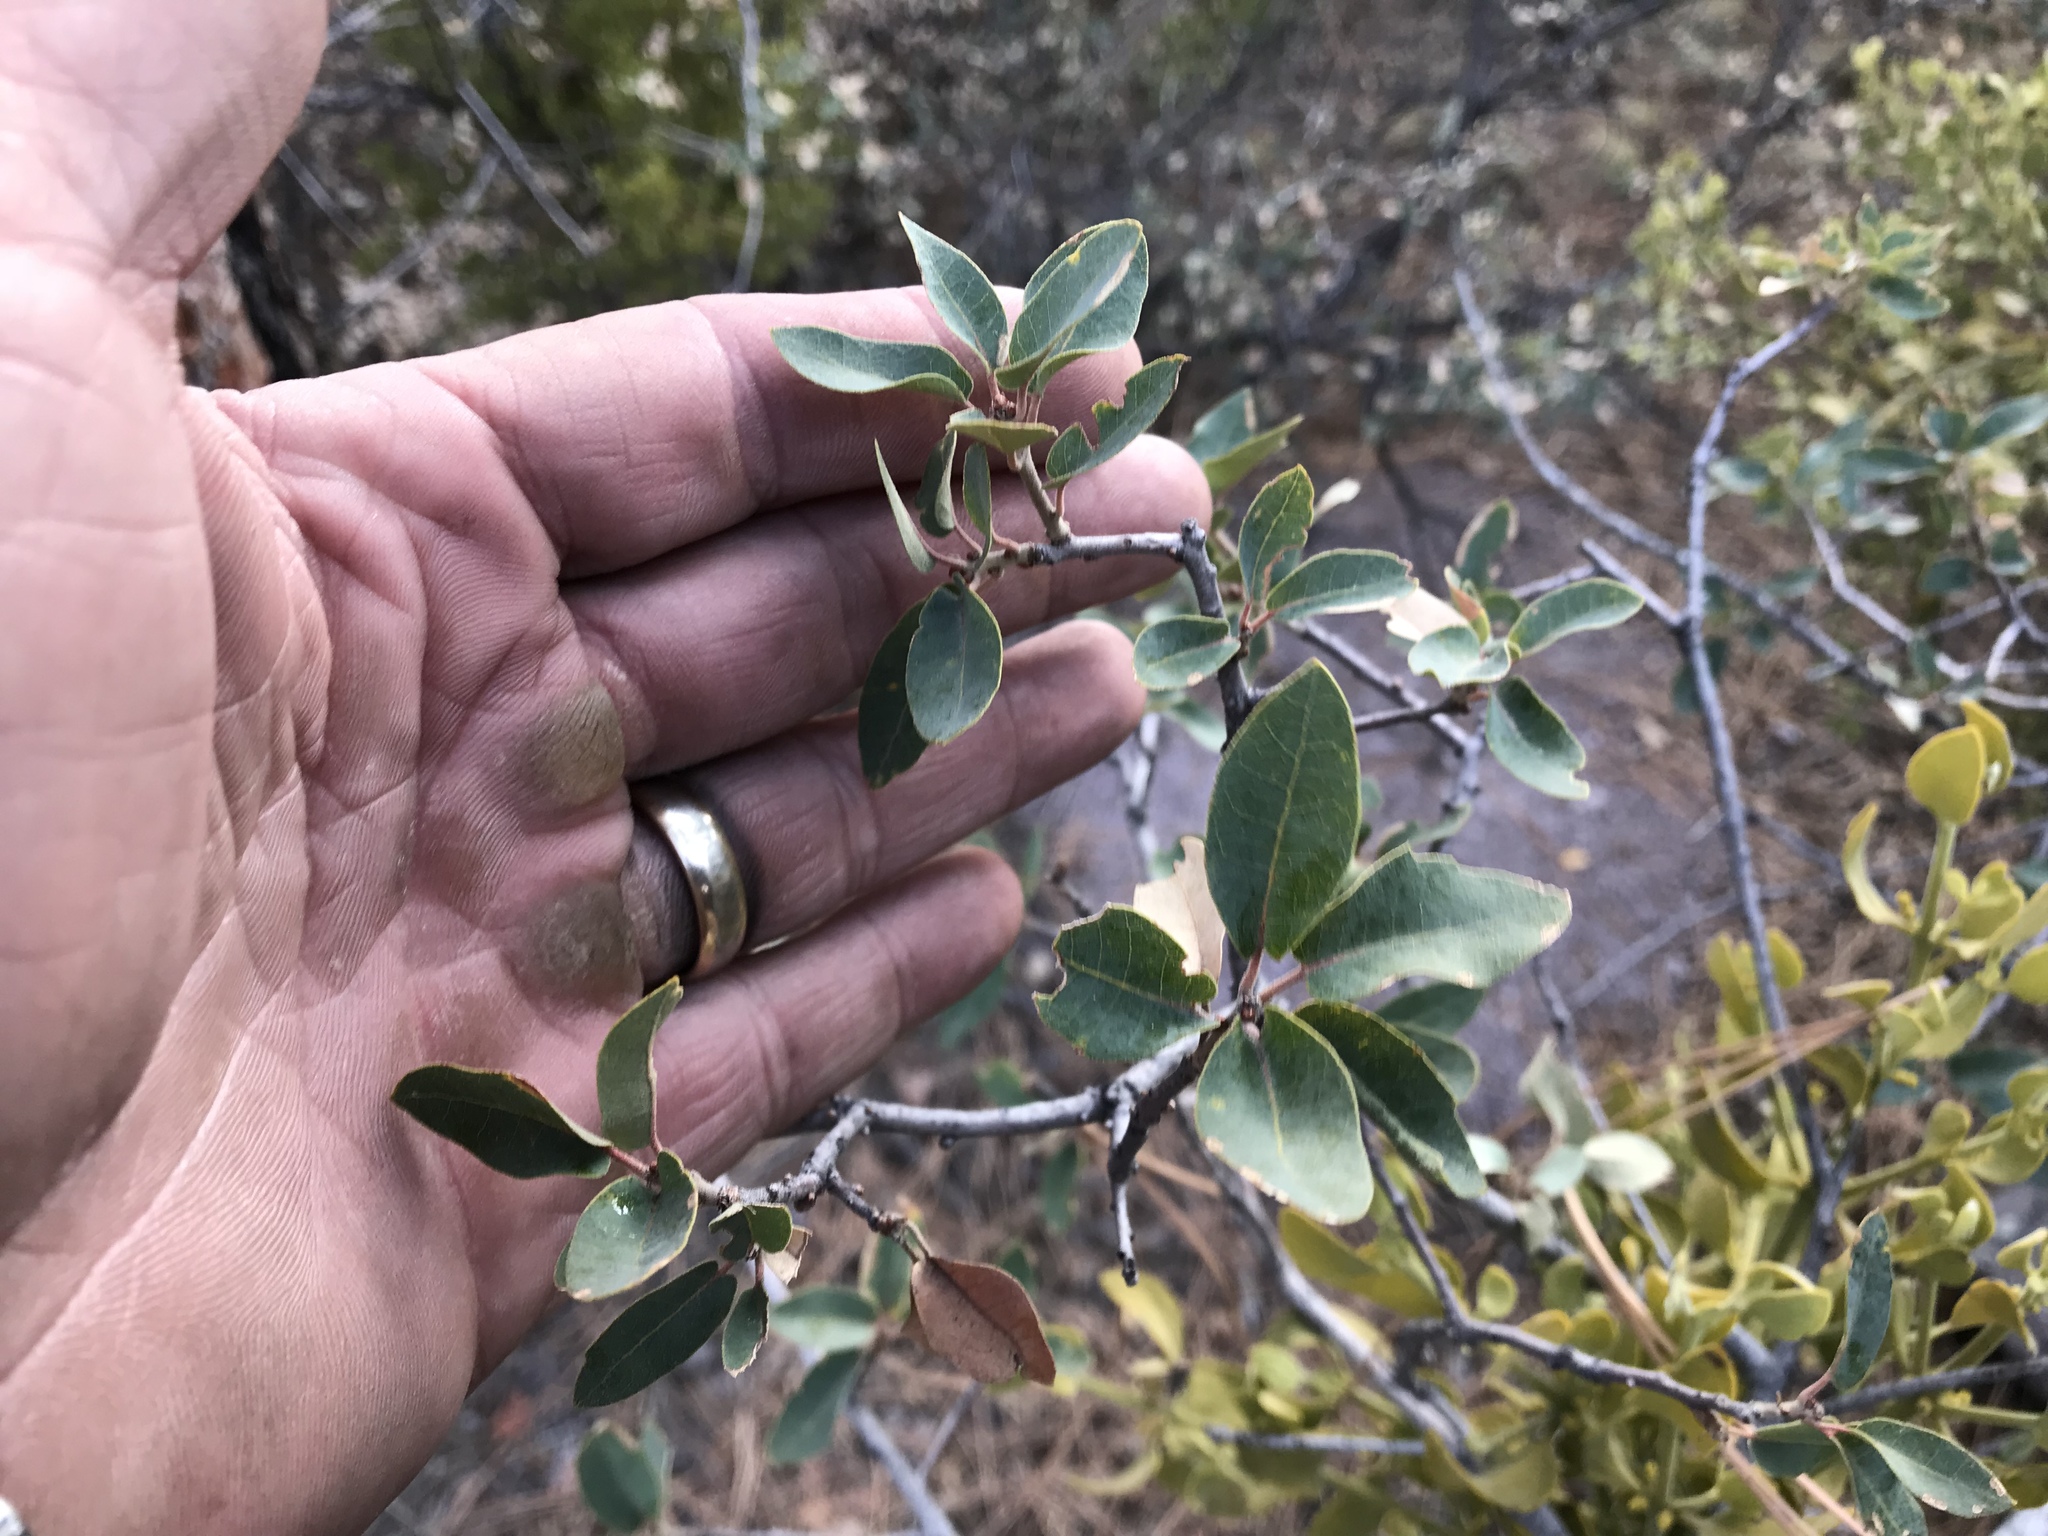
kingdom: Plantae
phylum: Tracheophyta
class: Magnoliopsida
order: Fagales
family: Fagaceae
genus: Quercus
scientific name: Quercus grisea
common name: Gray oak
